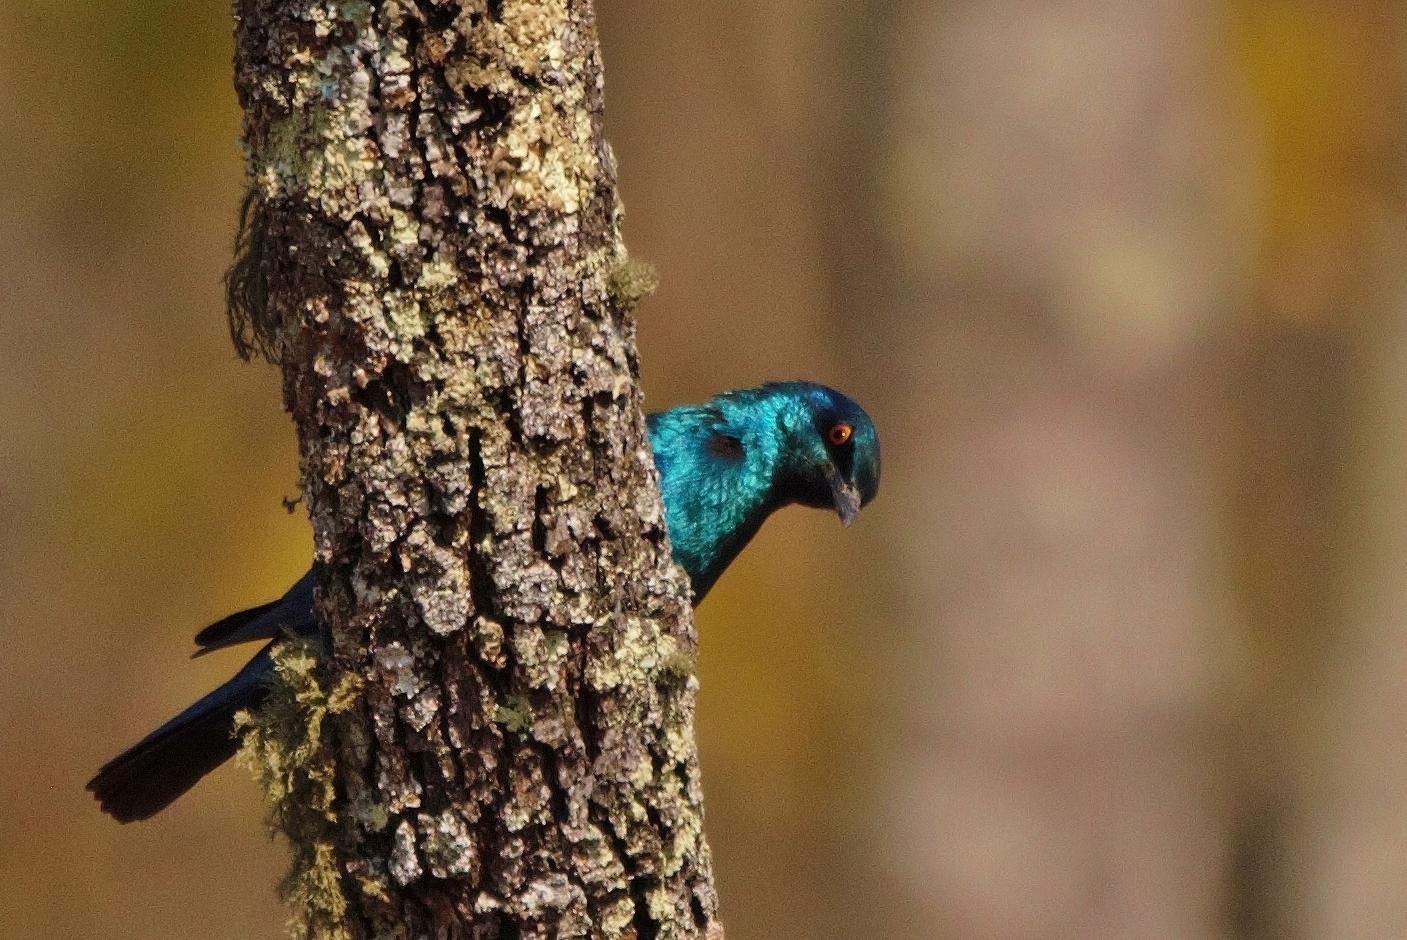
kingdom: Animalia
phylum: Chordata
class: Aves
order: Passeriformes
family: Sturnidae
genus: Lamprotornis
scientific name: Lamprotornis chloropterus
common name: Lesser blue-eared starling
